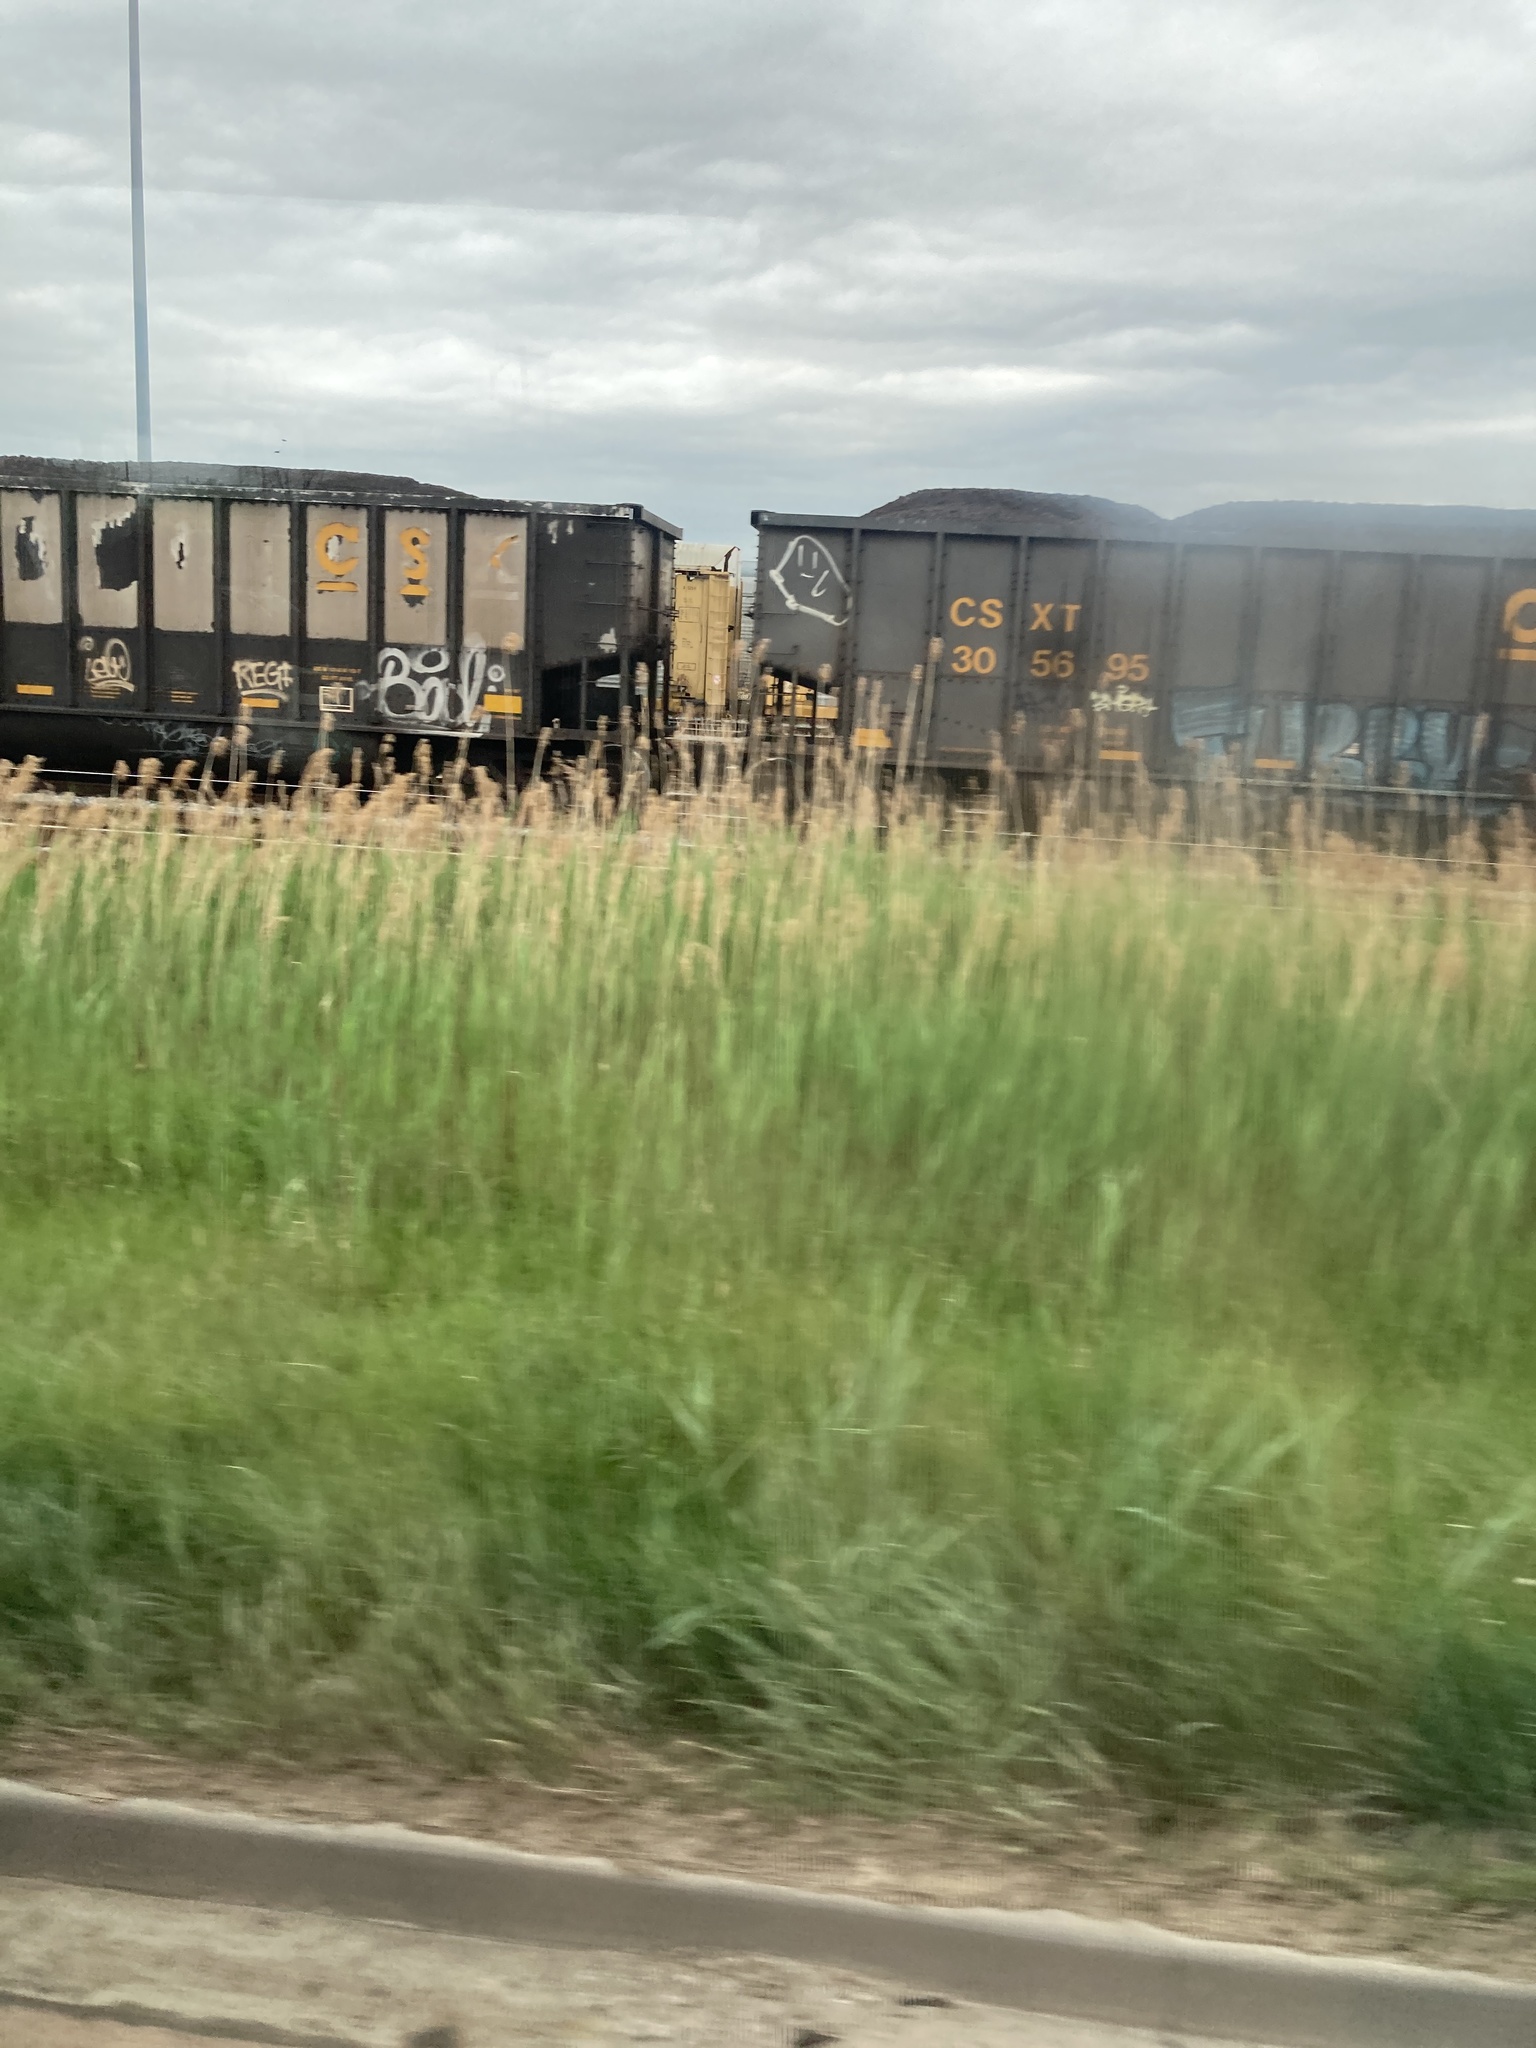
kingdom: Plantae
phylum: Tracheophyta
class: Liliopsida
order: Poales
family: Poaceae
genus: Phragmites
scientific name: Phragmites australis
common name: Common reed
